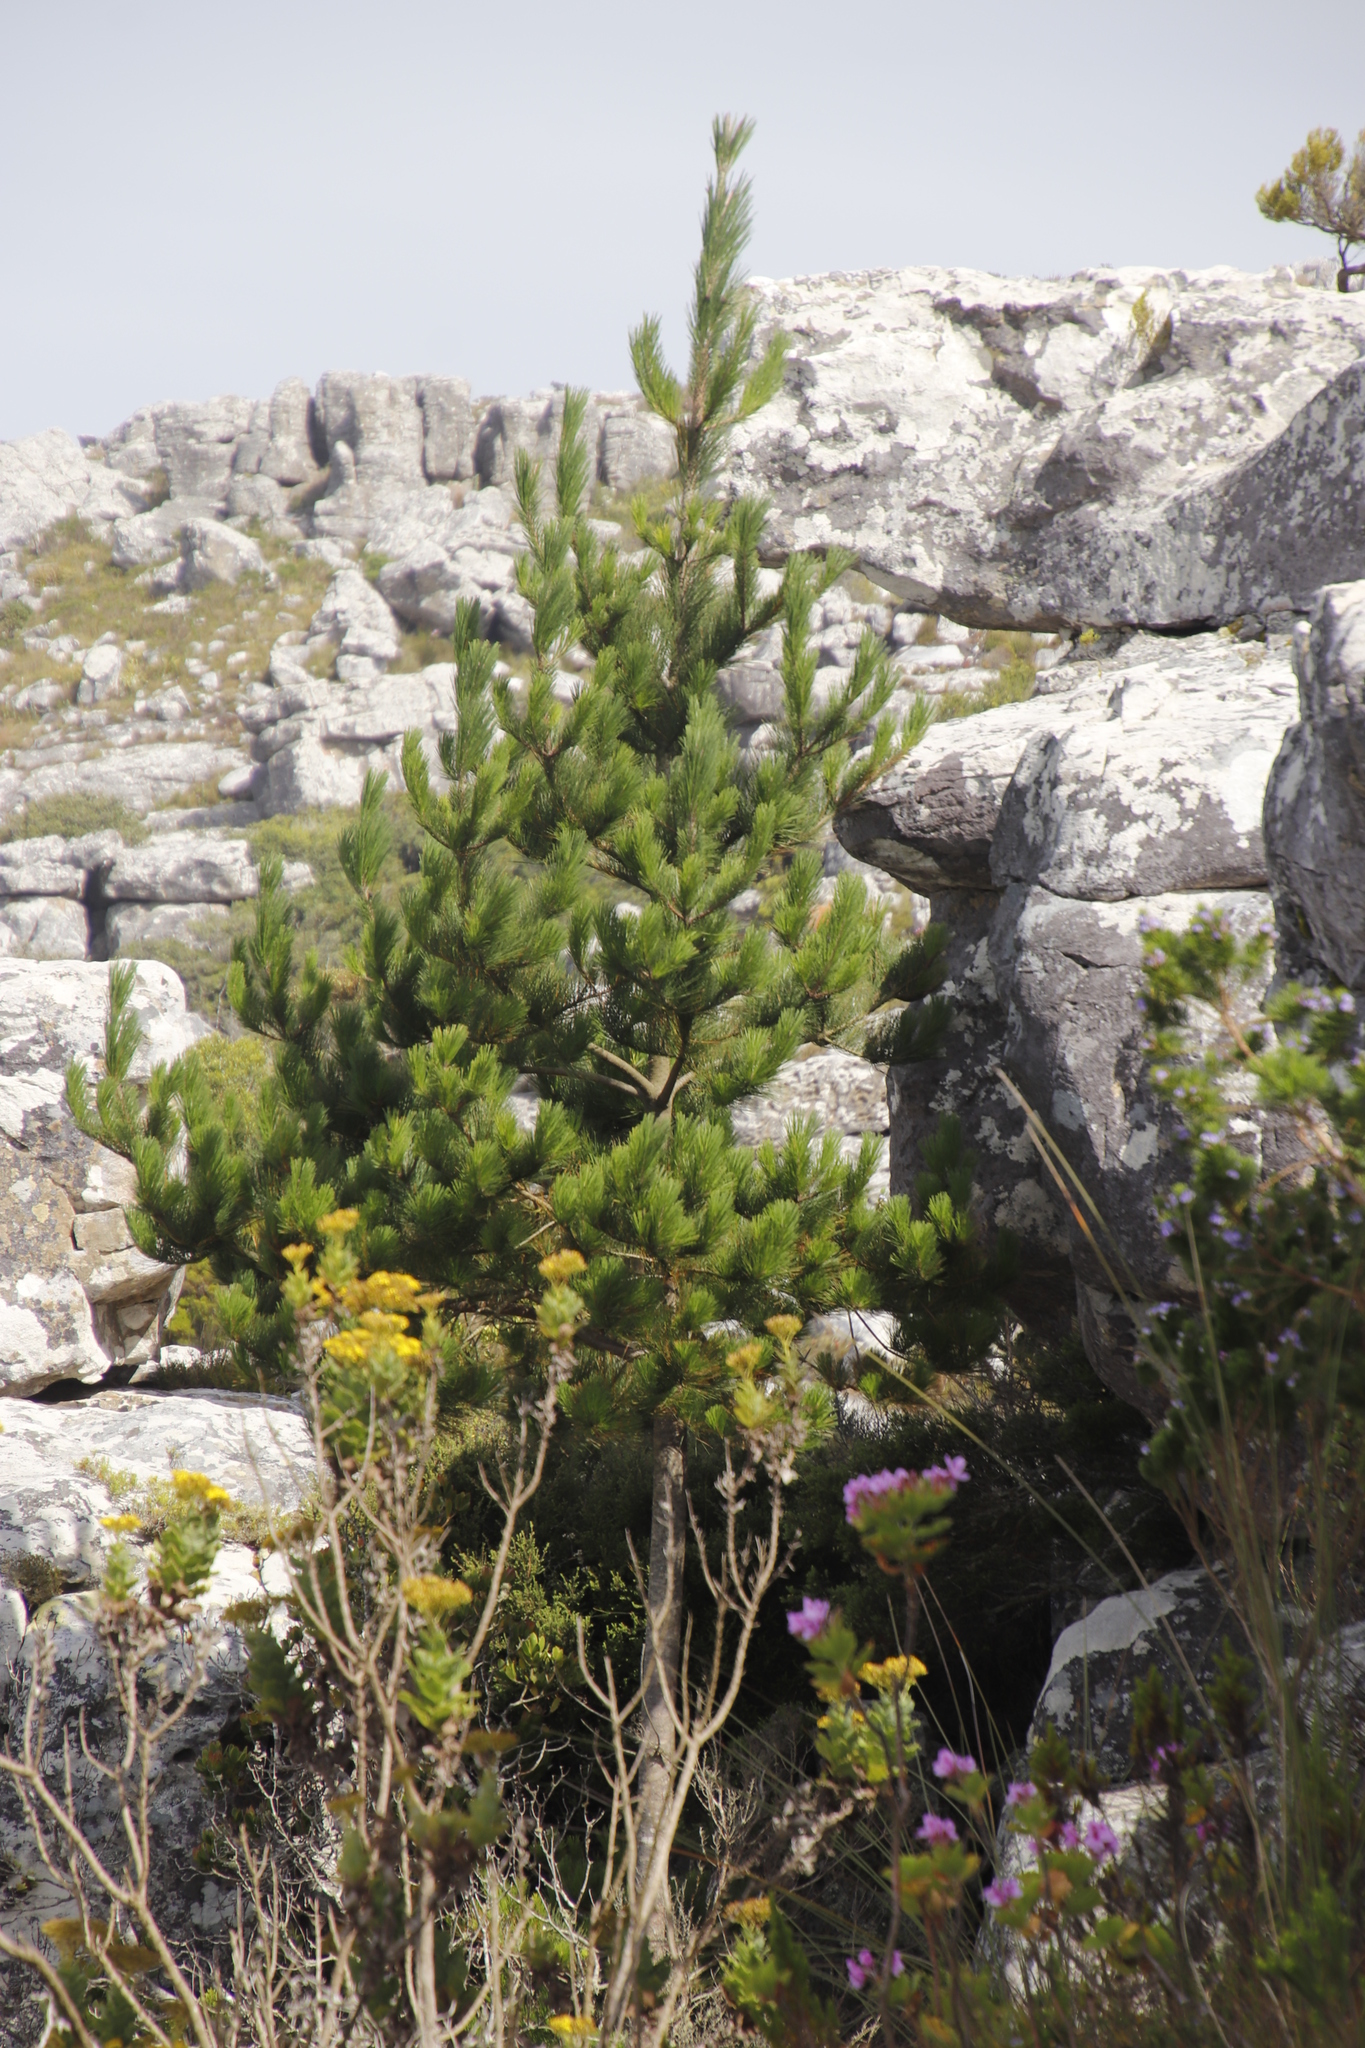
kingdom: Plantae
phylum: Tracheophyta
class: Pinopsida
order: Pinales
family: Pinaceae
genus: Pinus
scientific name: Pinus radiata
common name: Monterey pine
